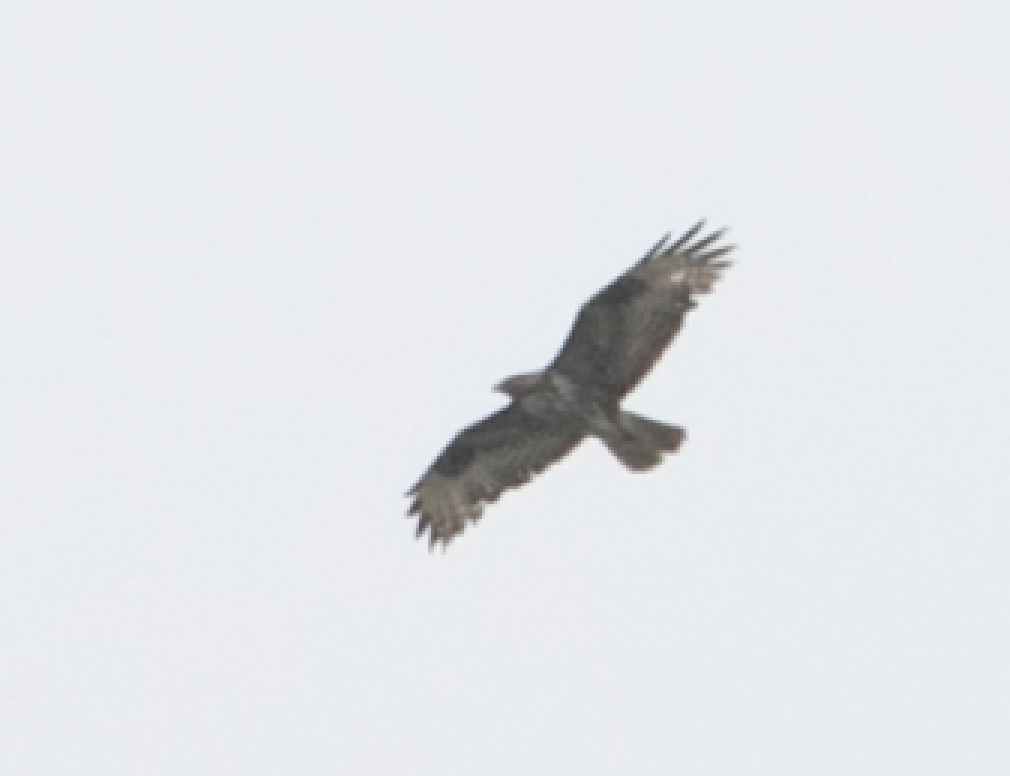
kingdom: Animalia
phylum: Chordata
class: Aves
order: Accipitriformes
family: Accipitridae
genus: Buteo
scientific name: Buteo buteo
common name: Common buzzard
